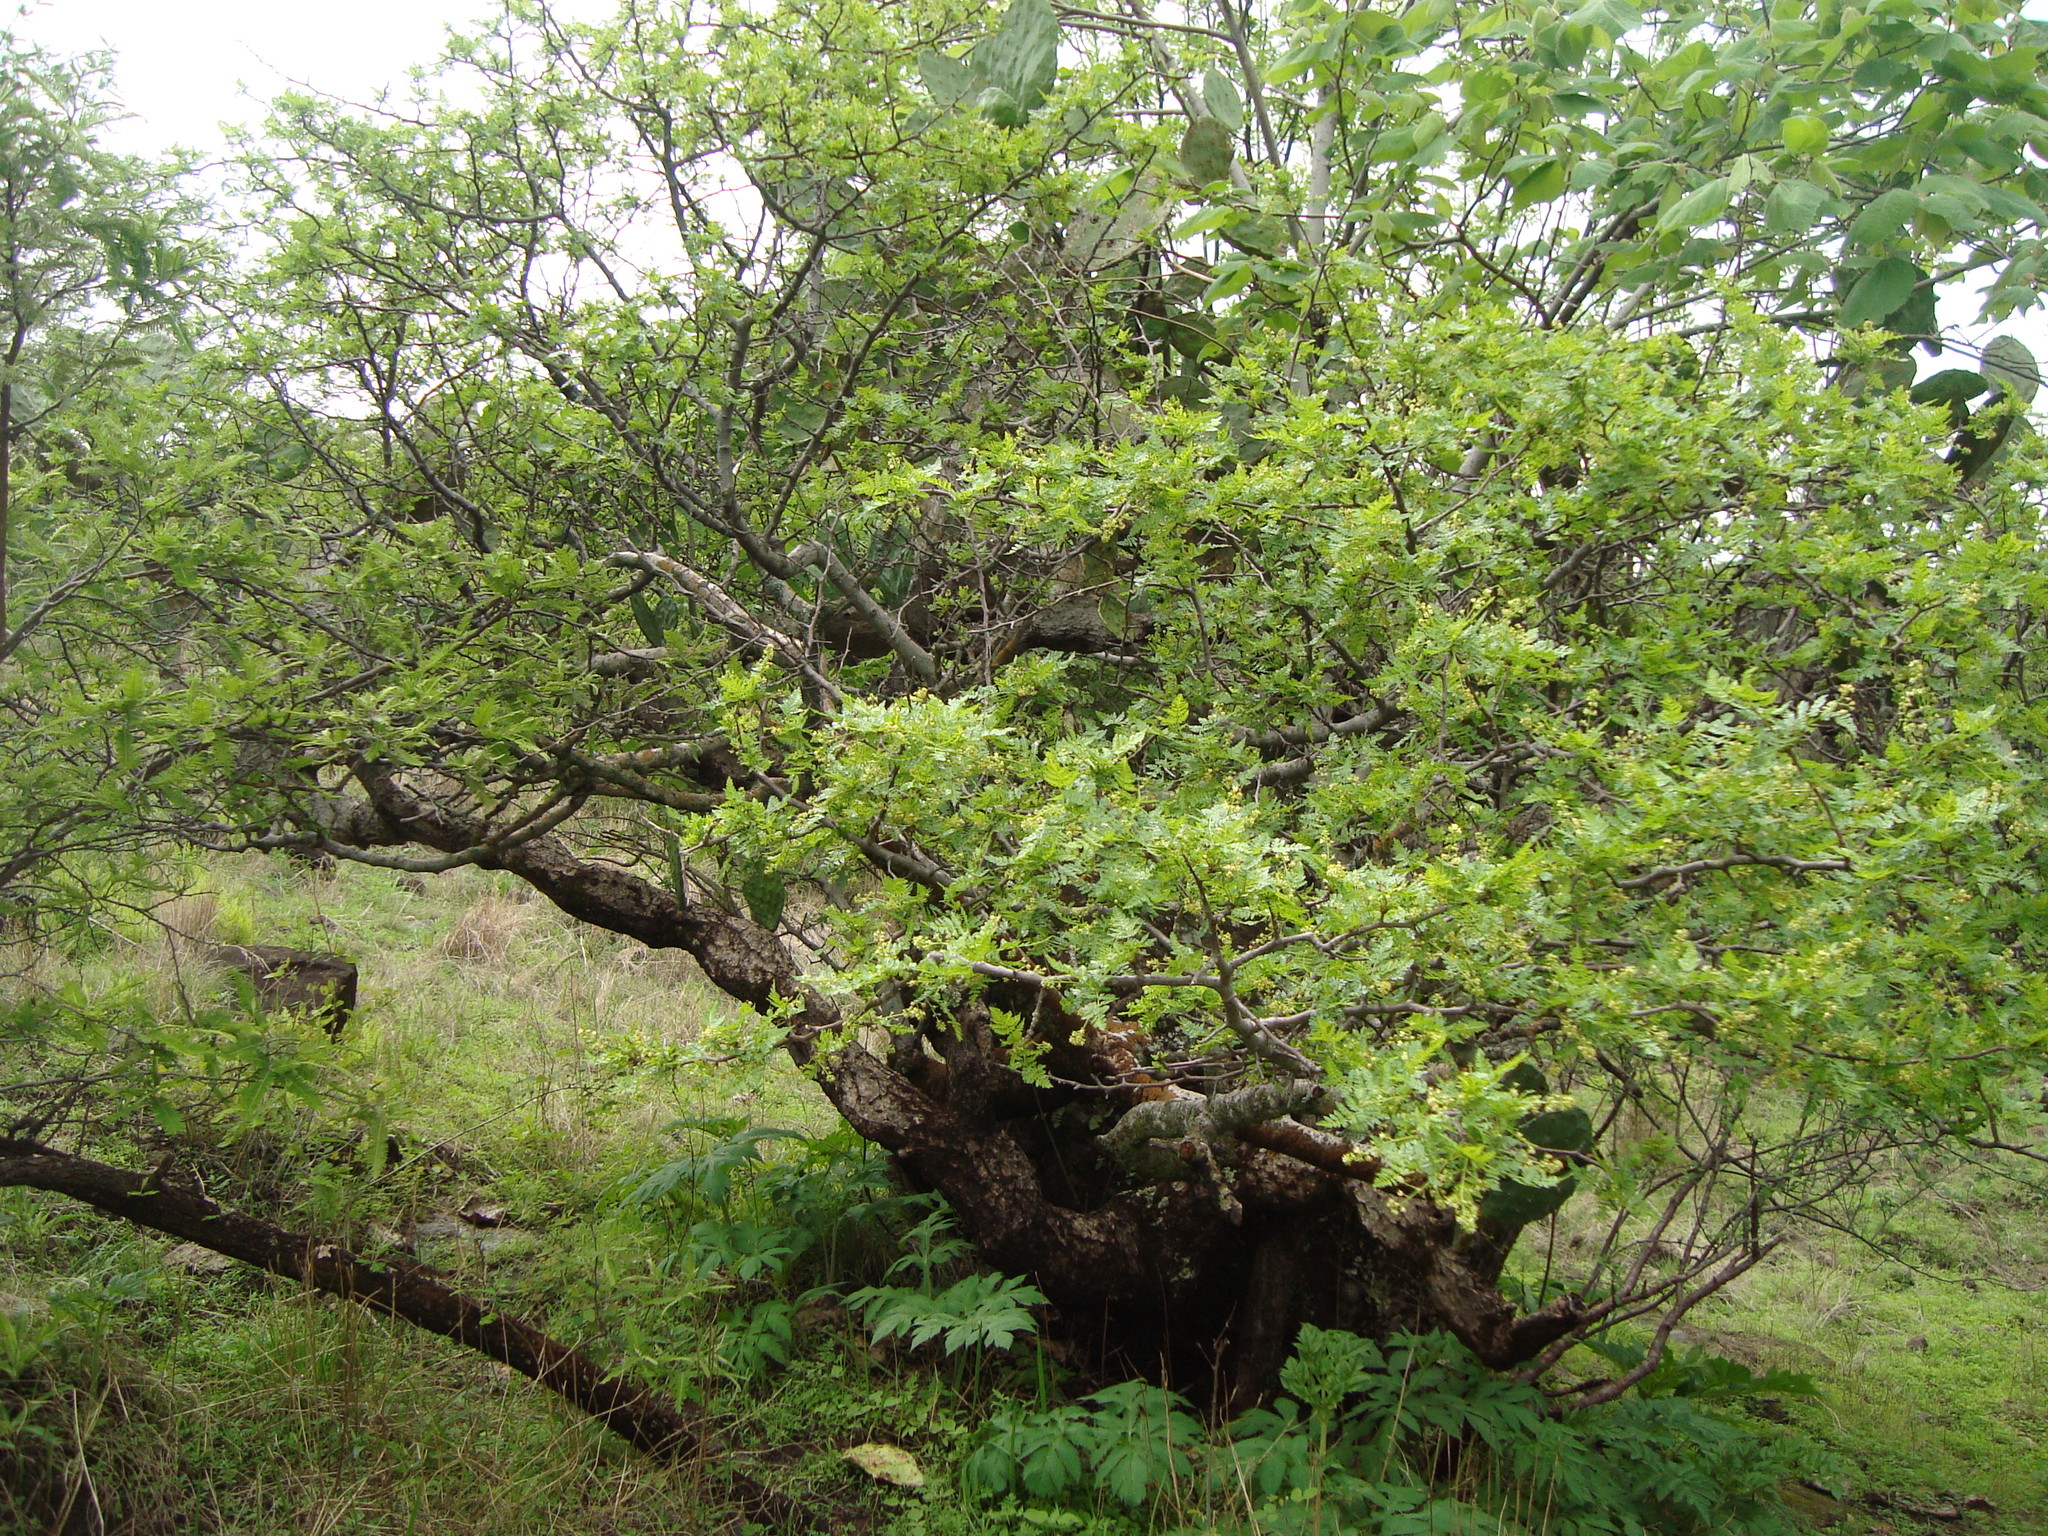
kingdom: Plantae
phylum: Tracheophyta
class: Magnoliopsida
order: Sapindales
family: Burseraceae
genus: Bursera
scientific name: Bursera bipinnata
